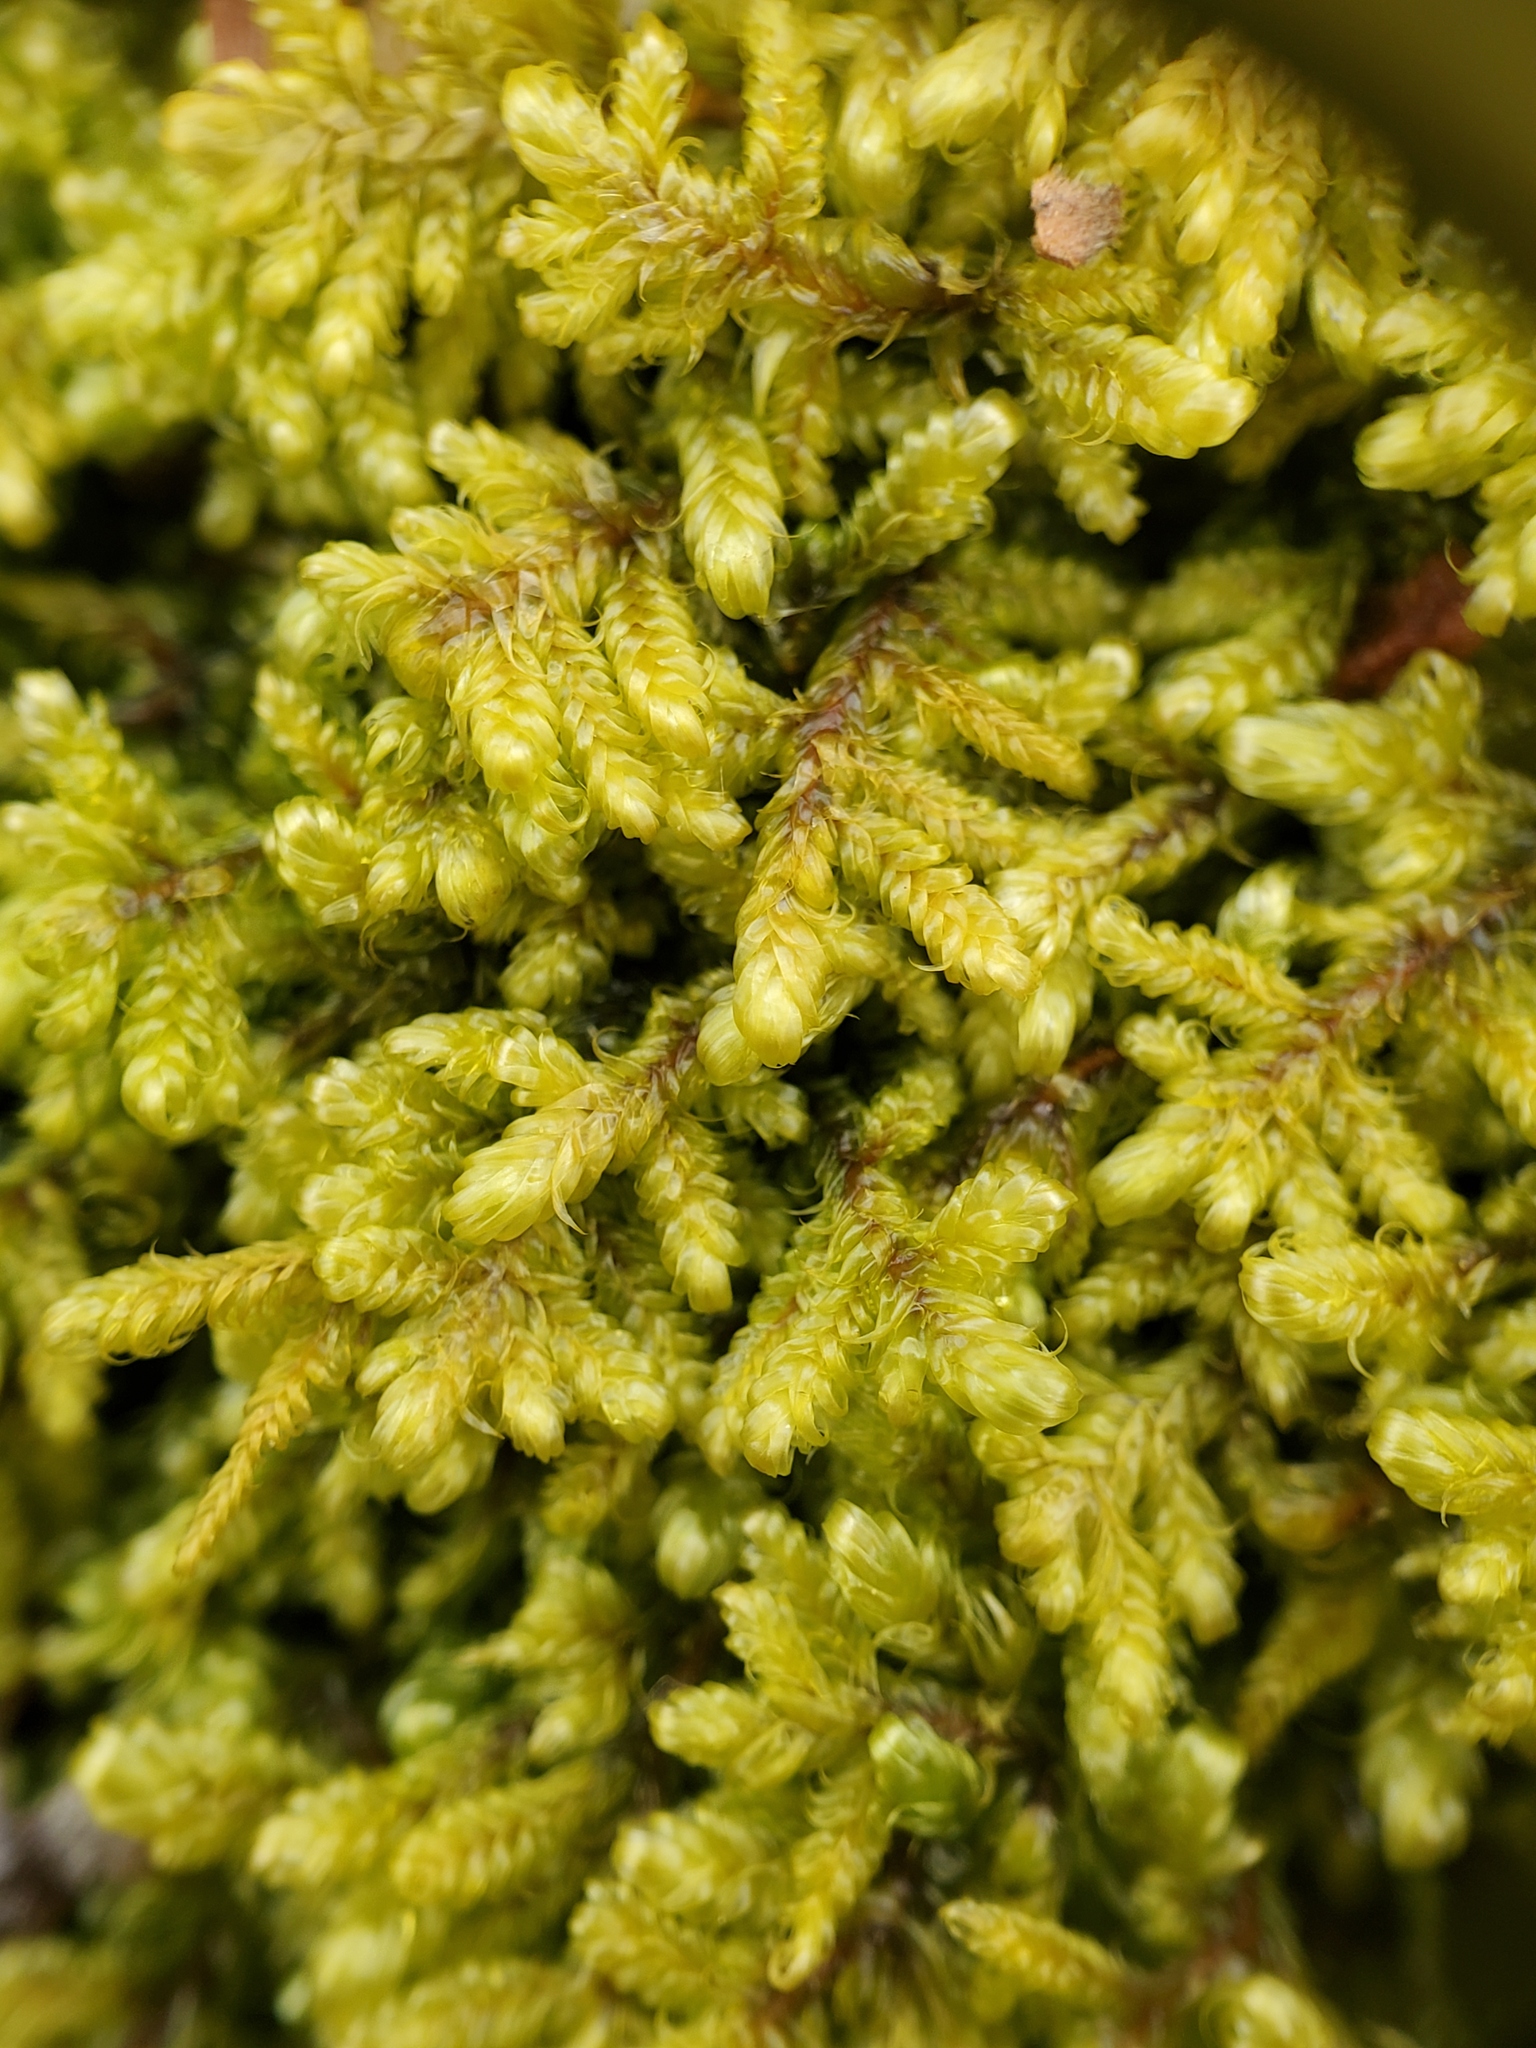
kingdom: Plantae
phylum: Bryophyta
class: Bryopsida
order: Hypnales
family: Callicladiaceae
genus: Callicladium
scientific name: Callicladium imponens
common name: Brocade moss
